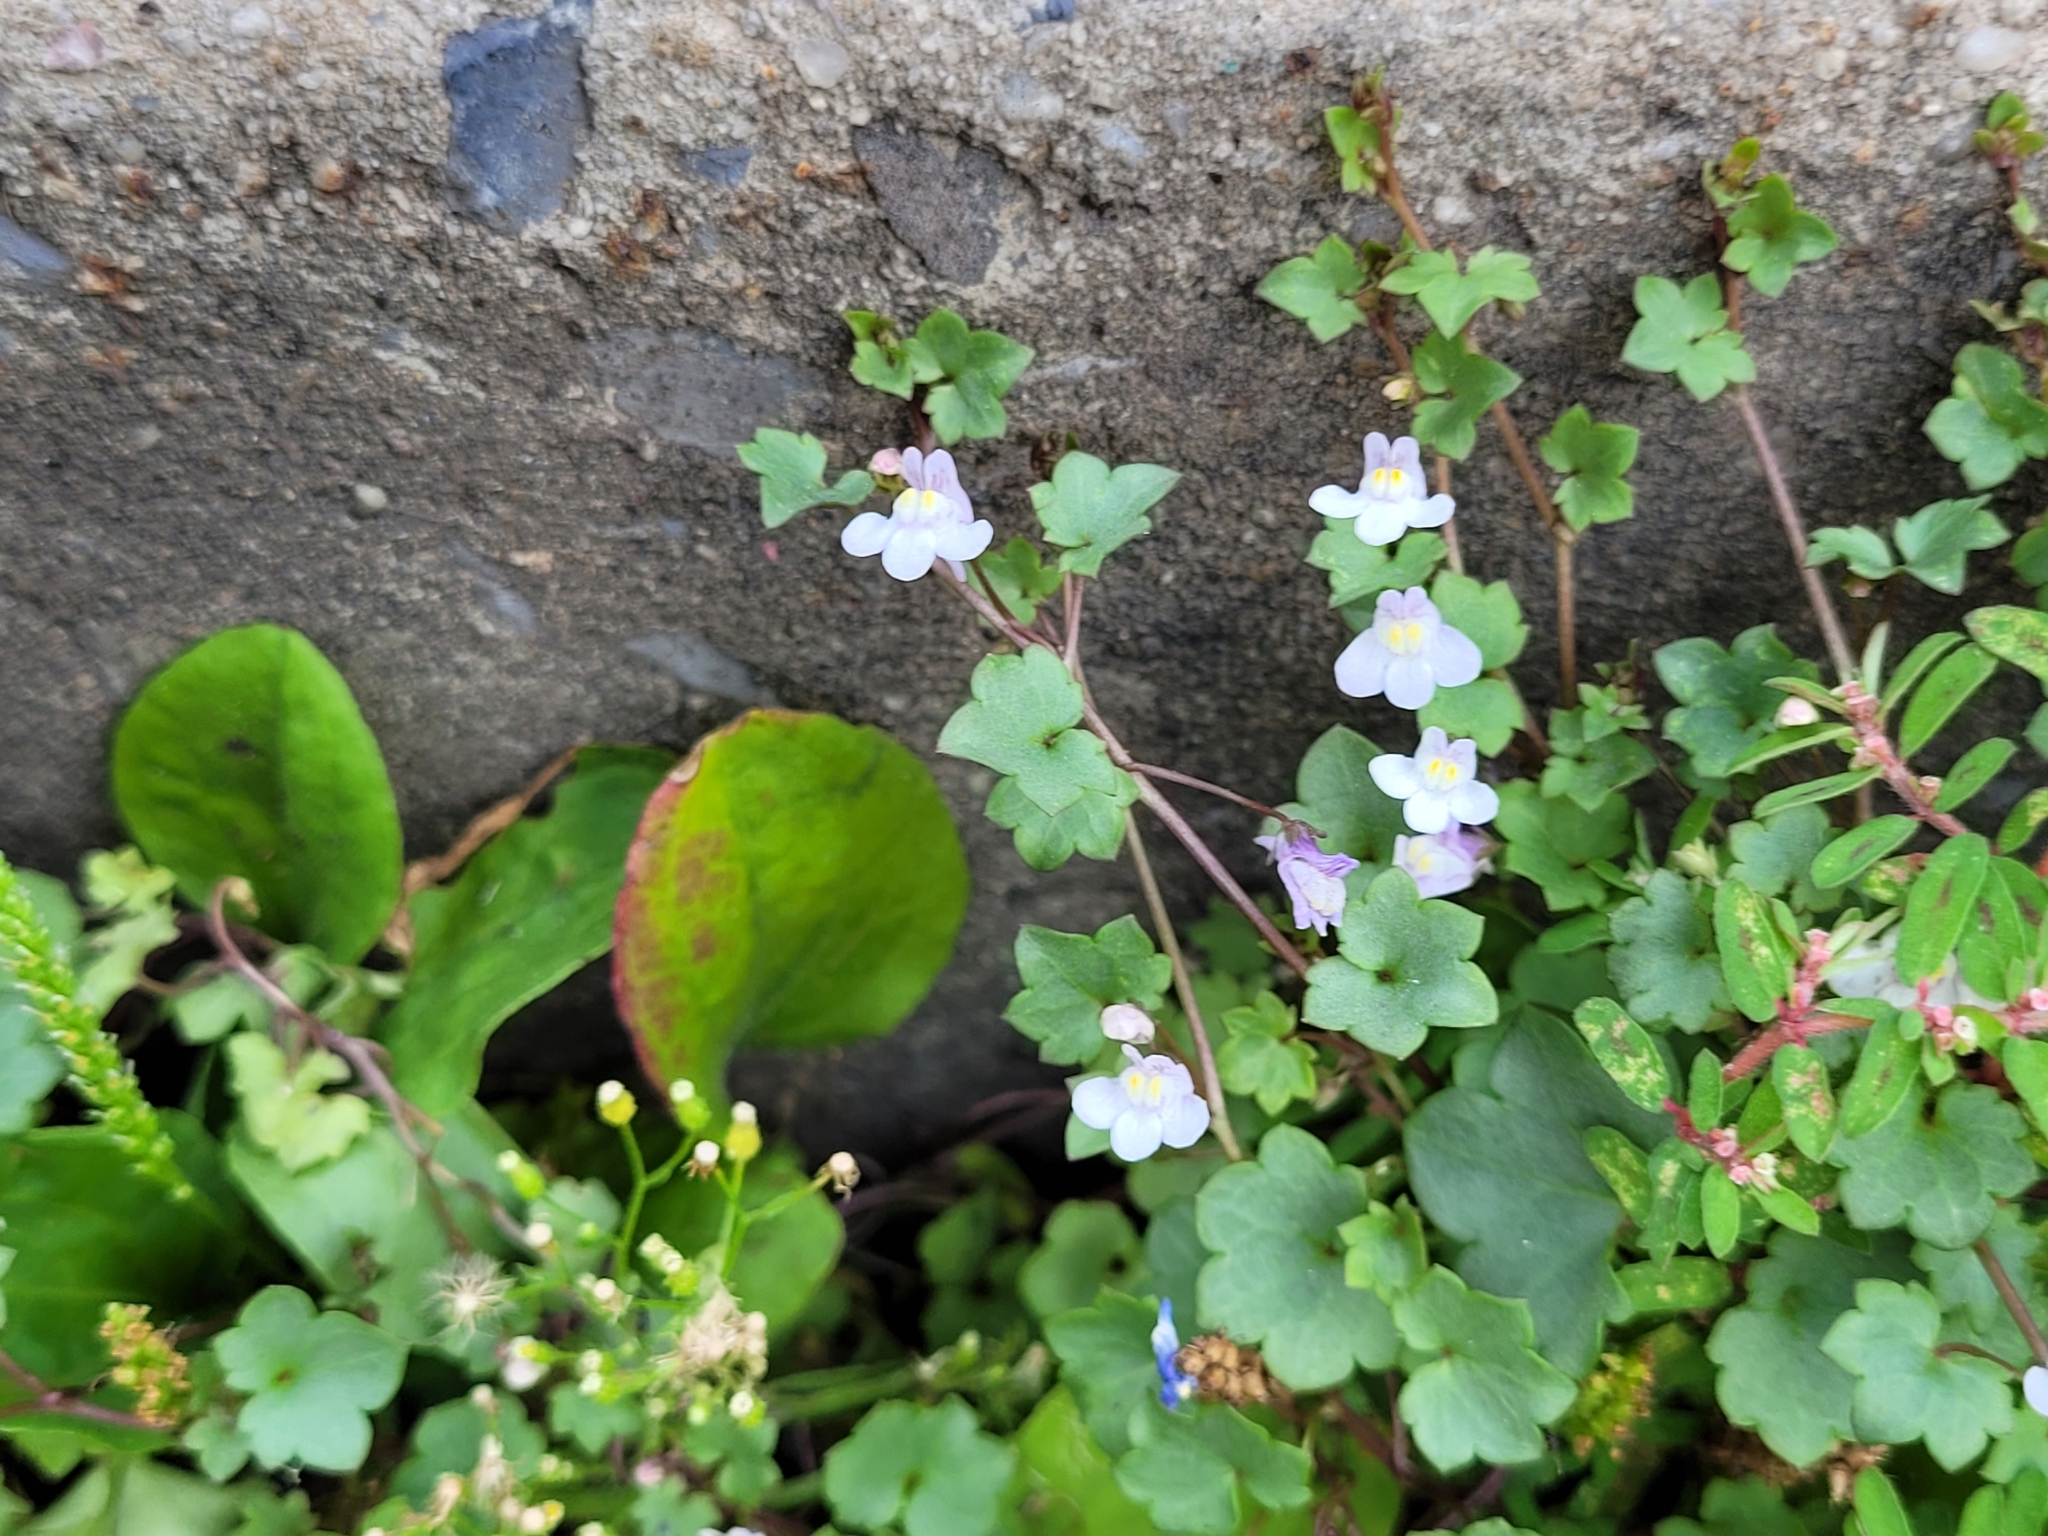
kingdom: Plantae
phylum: Tracheophyta
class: Magnoliopsida
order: Lamiales
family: Plantaginaceae
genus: Cymbalaria
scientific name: Cymbalaria muralis
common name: Ivy-leaved toadflax
